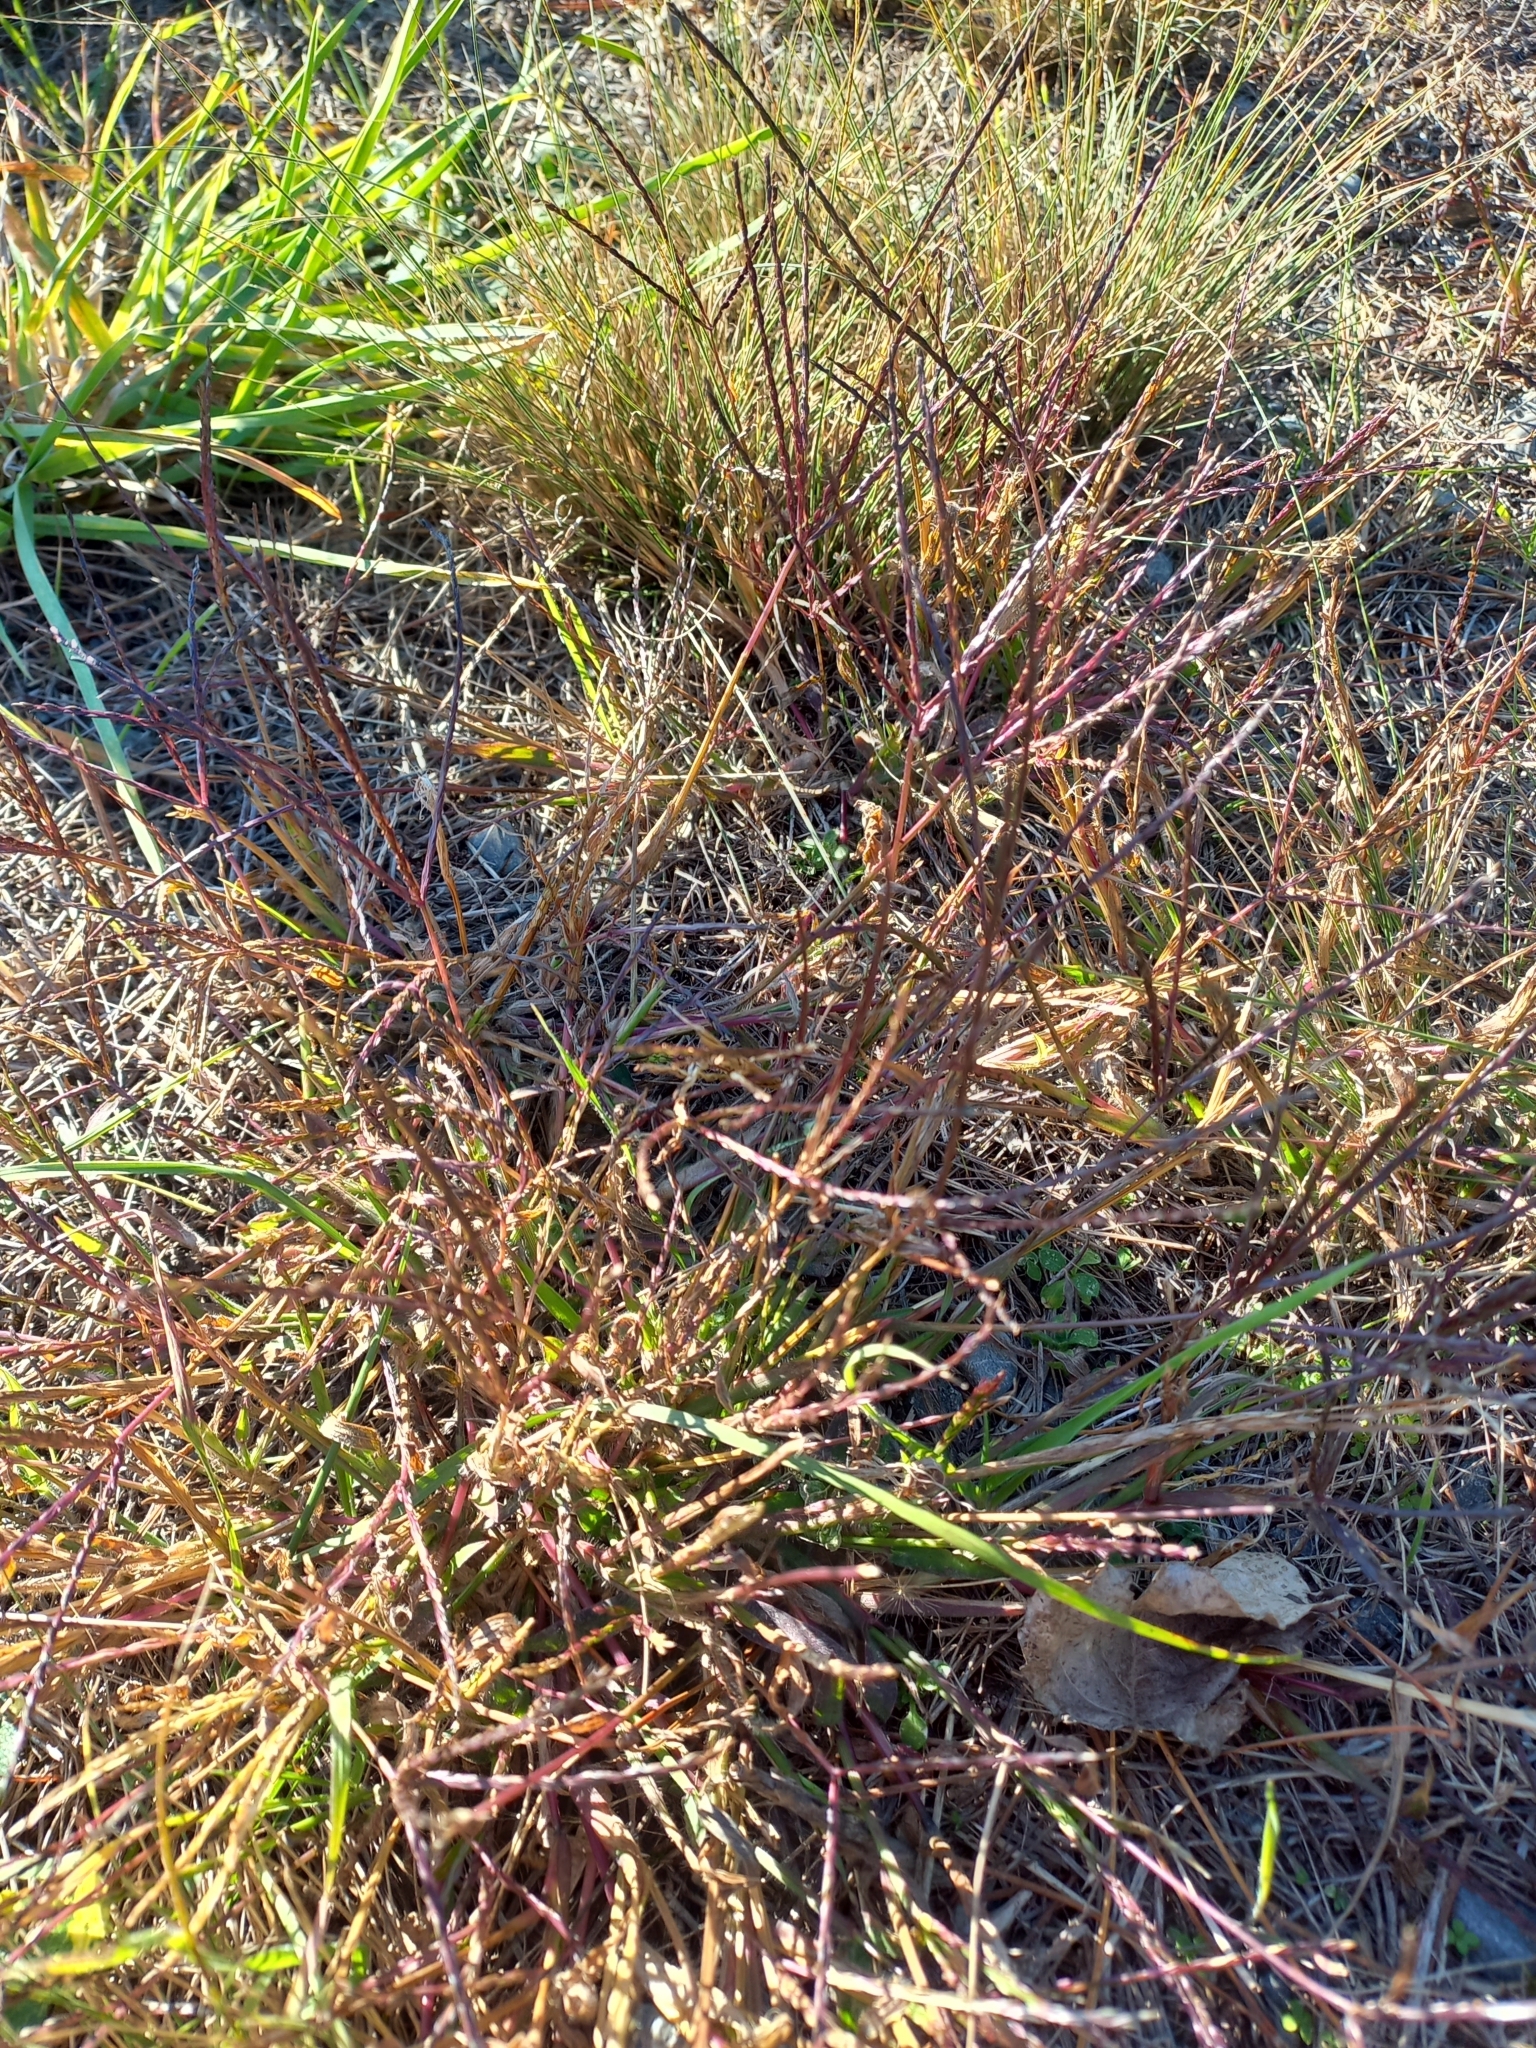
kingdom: Plantae
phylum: Tracheophyta
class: Liliopsida
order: Poales
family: Poaceae
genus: Digitaria
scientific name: Digitaria sanguinalis
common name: Hairy crabgrass
